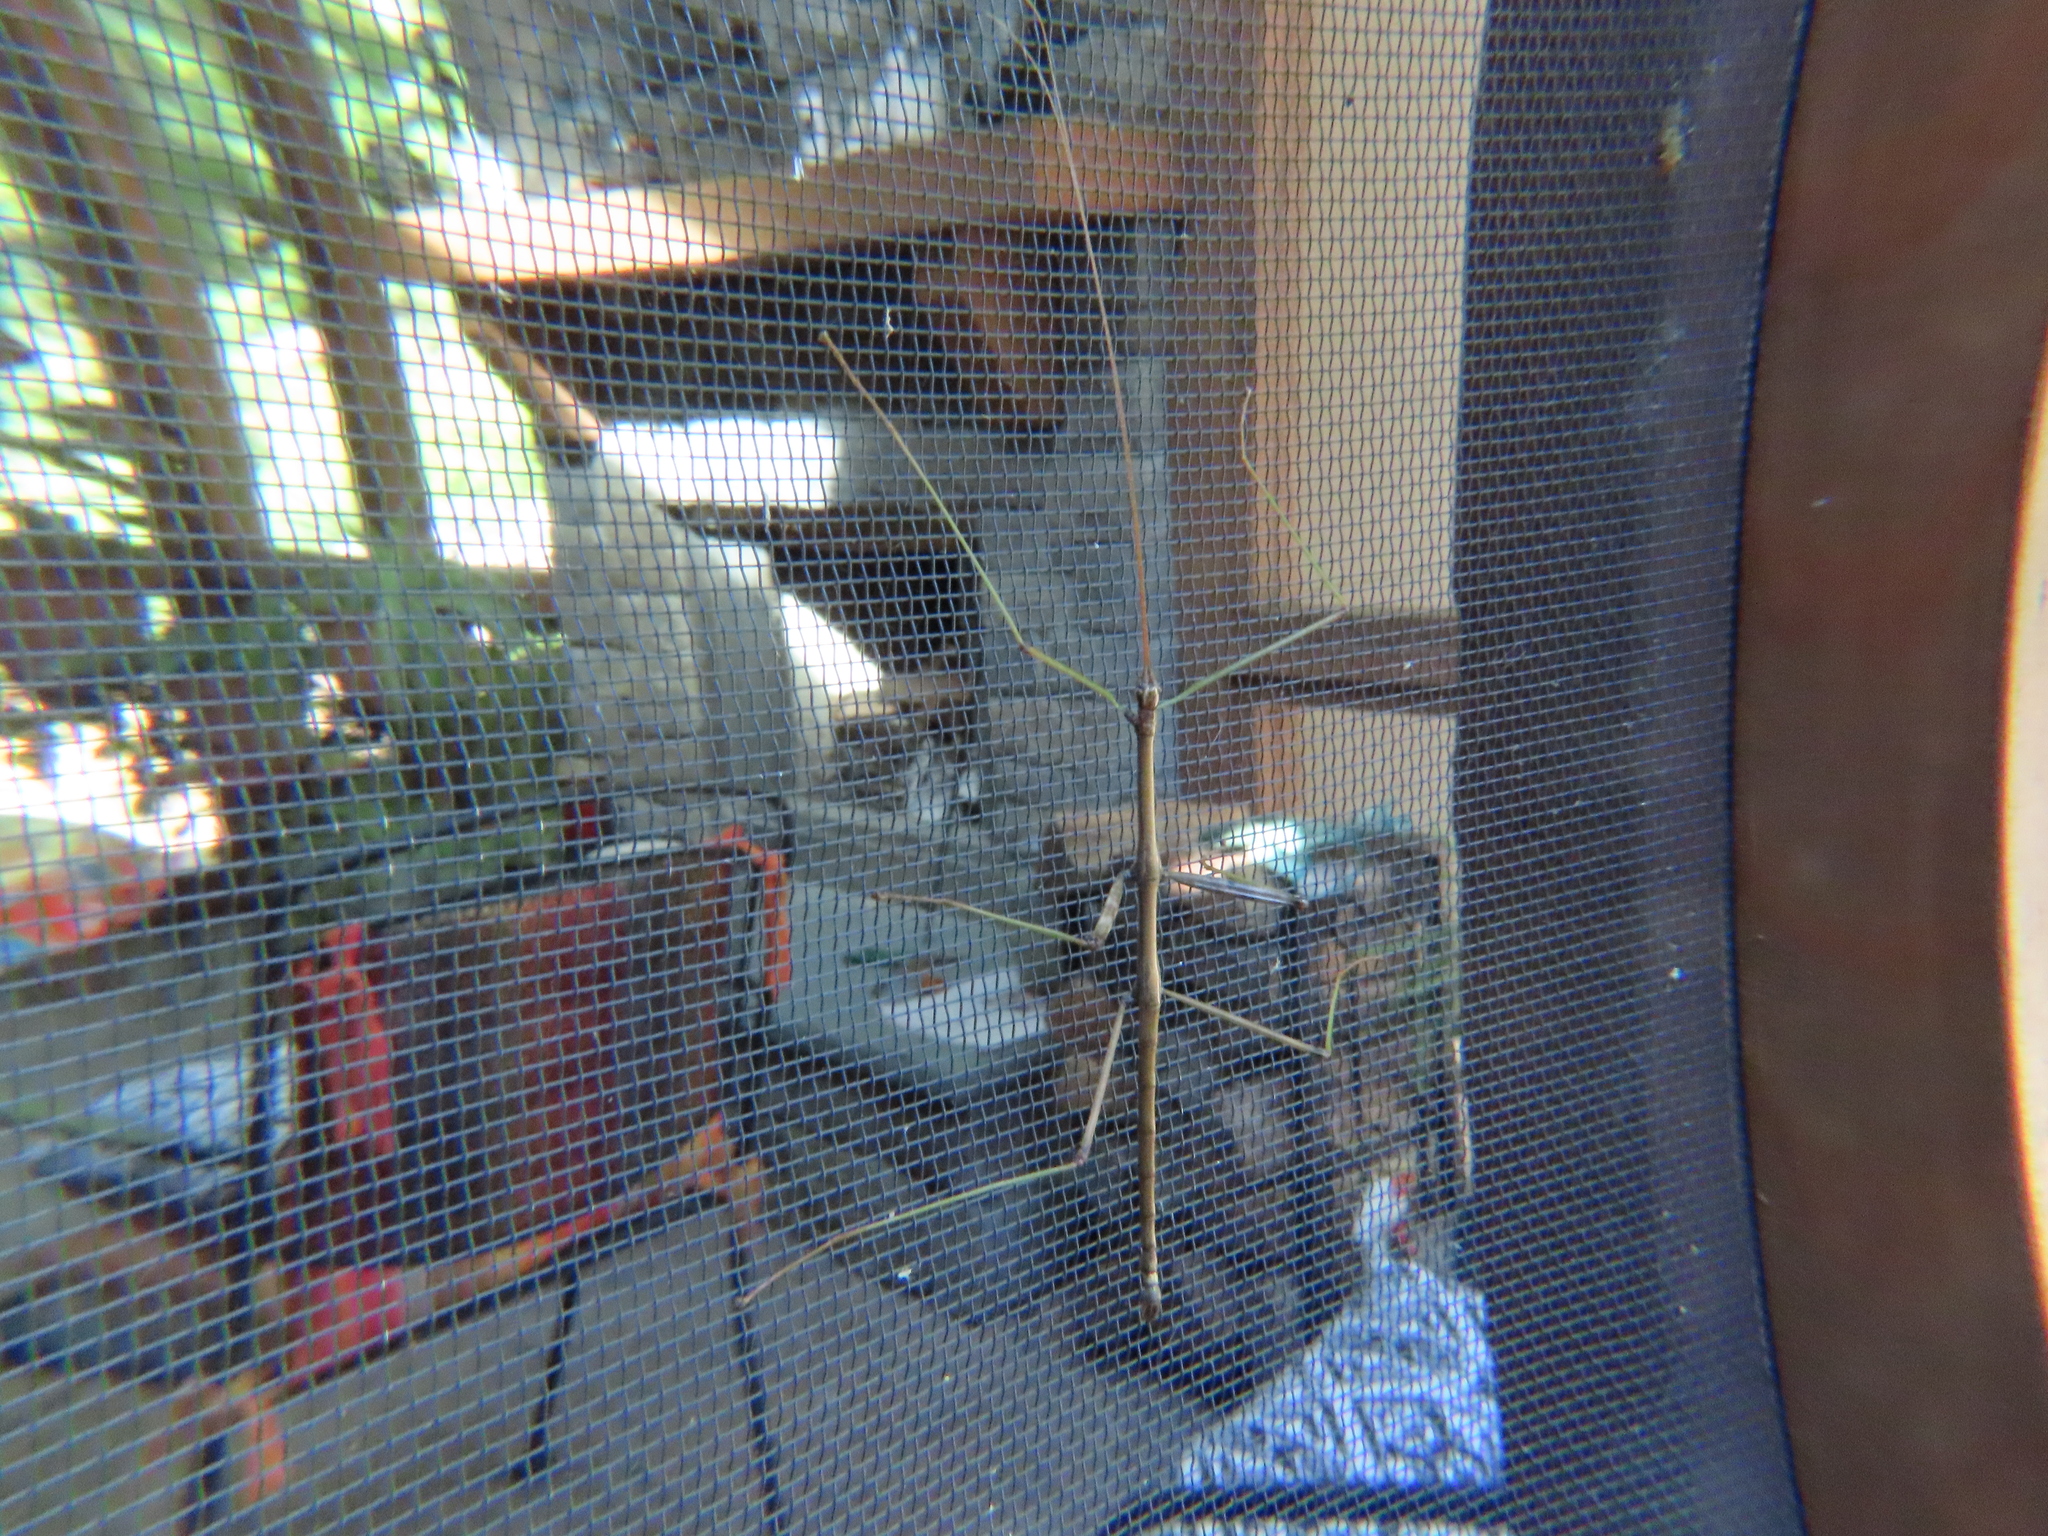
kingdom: Animalia
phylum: Arthropoda
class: Insecta
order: Phasmida
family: Diapheromeridae
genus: Diapheromera
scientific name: Diapheromera femorata
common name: Common american walkingstick
